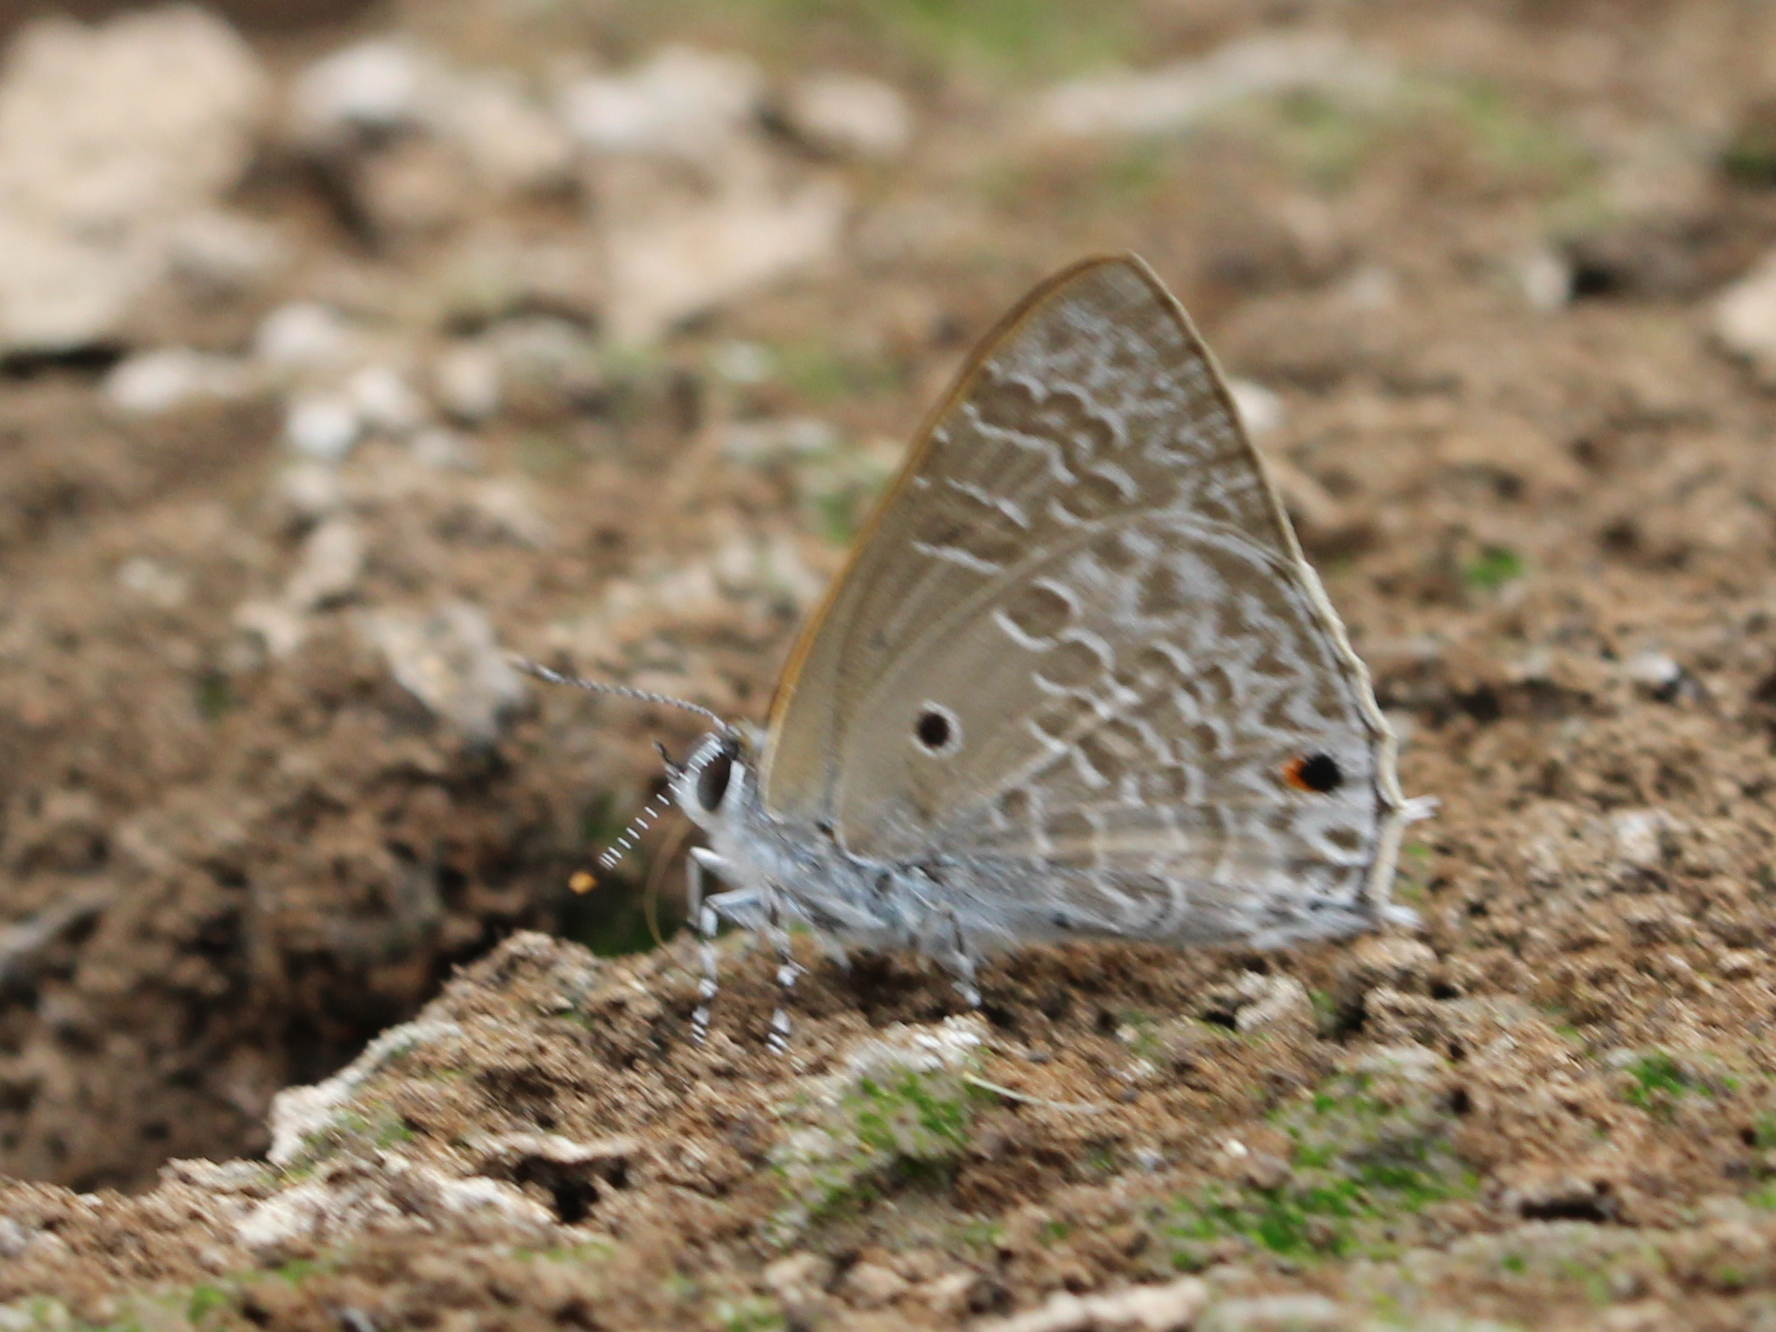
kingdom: Animalia
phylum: Arthropoda
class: Insecta
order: Lepidoptera
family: Lycaenidae
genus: Anthene
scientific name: Anthene lycaenina
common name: Pointed ciliate blue
